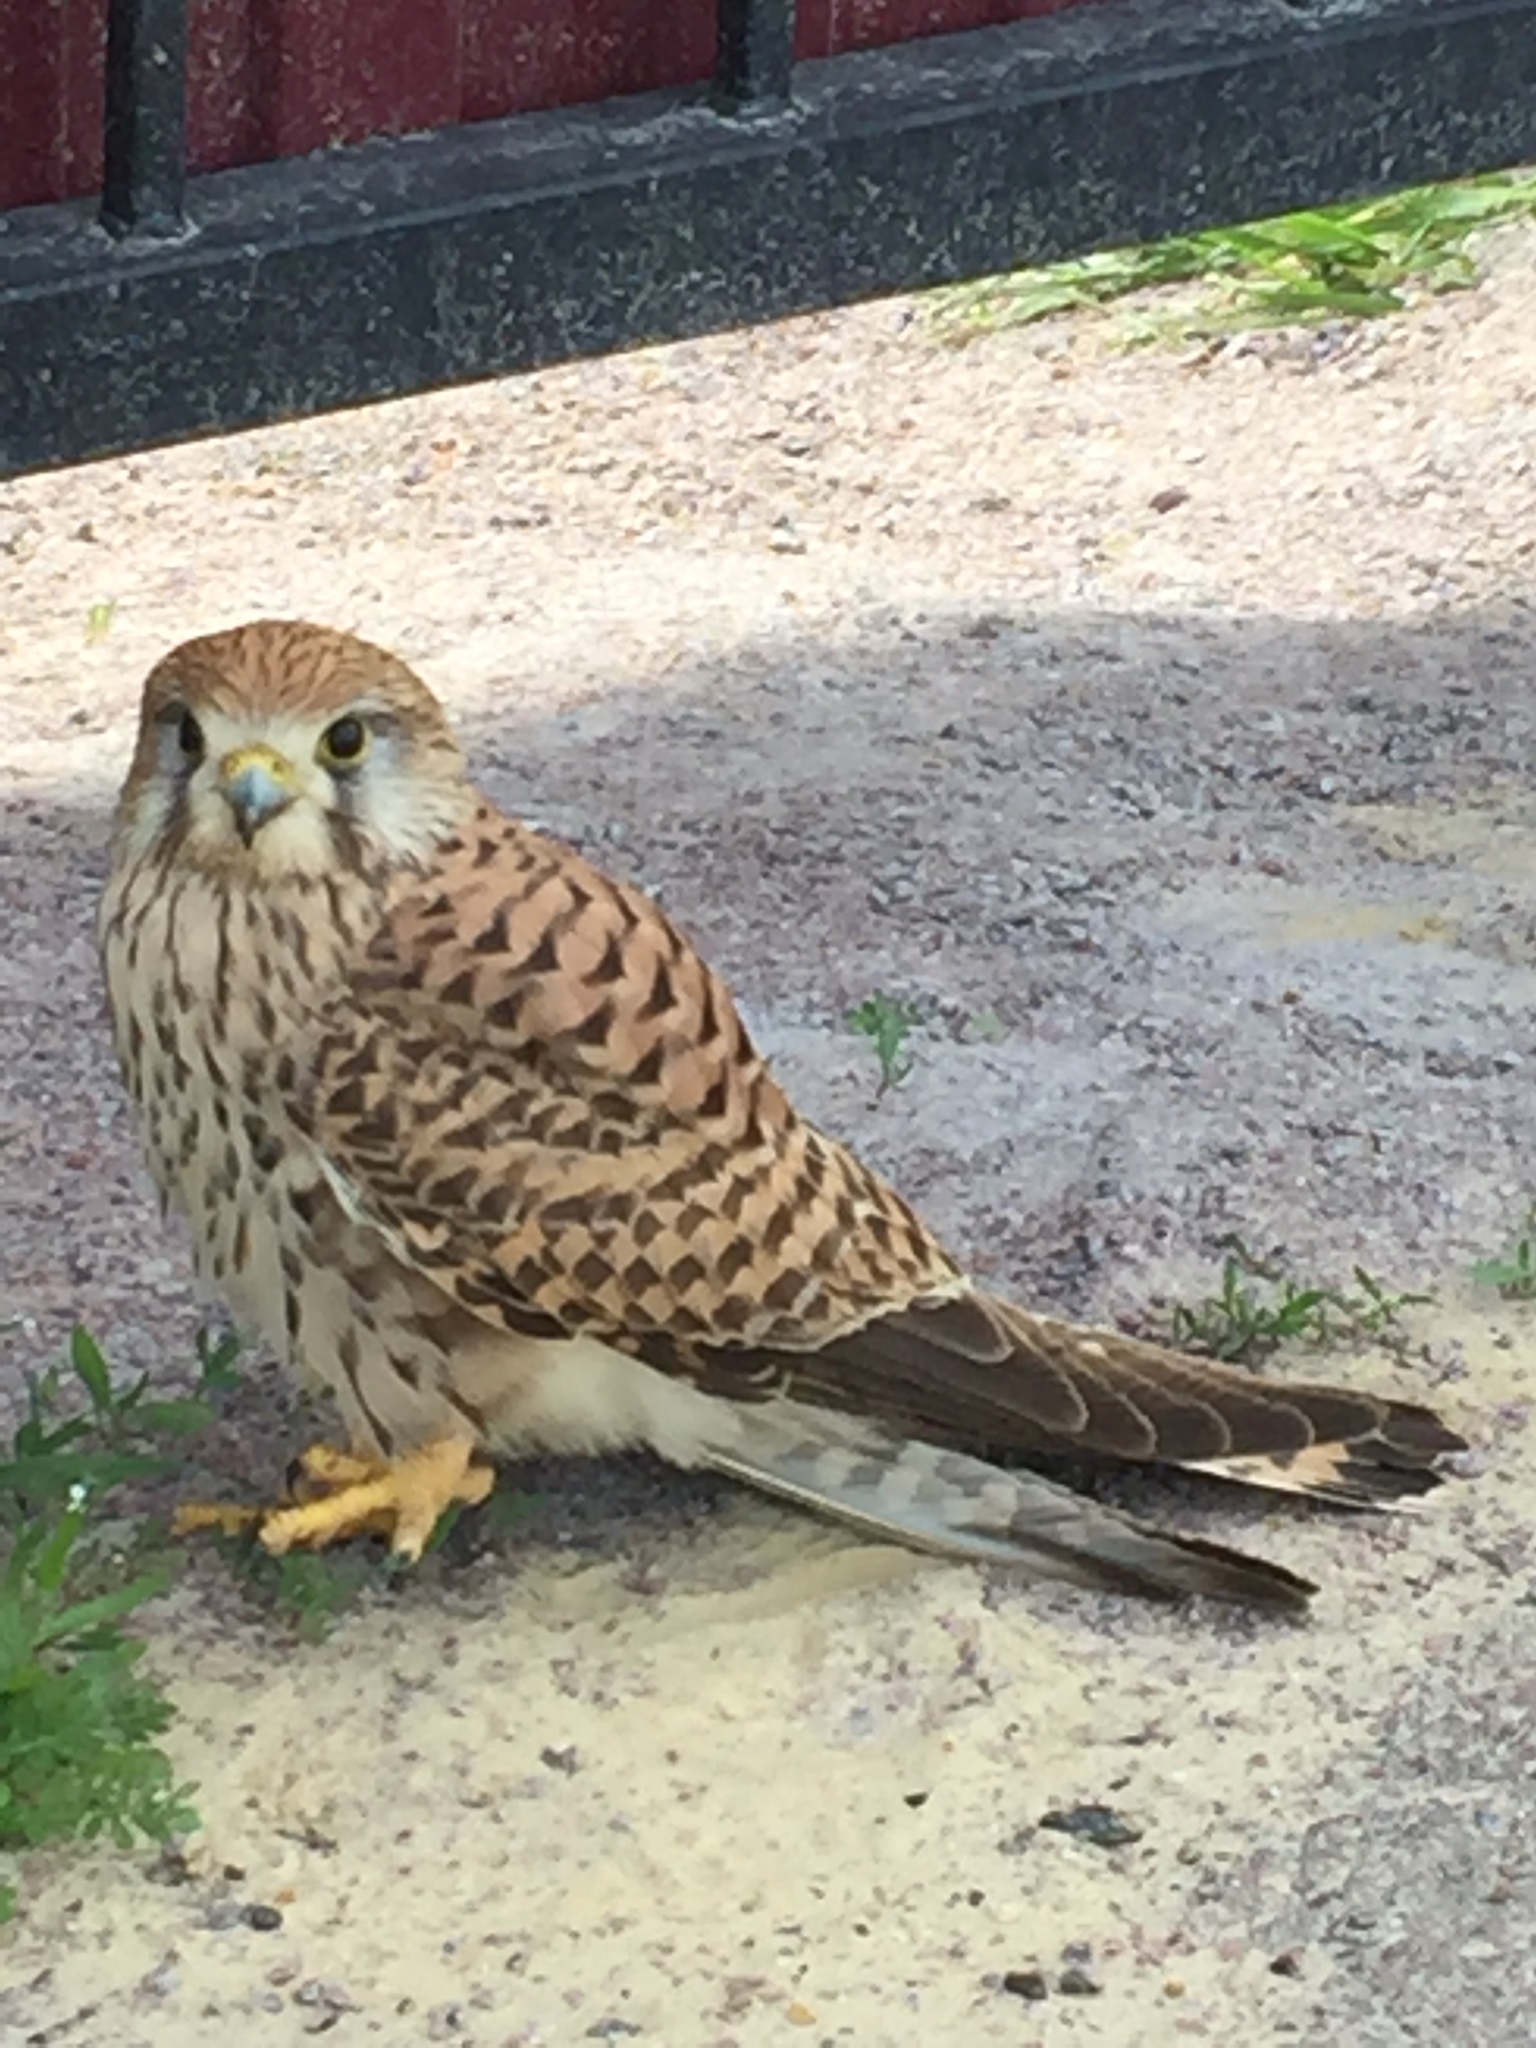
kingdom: Animalia
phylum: Chordata
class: Aves
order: Falconiformes
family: Falconidae
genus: Falco
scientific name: Falco tinnunculus
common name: Common kestrel
